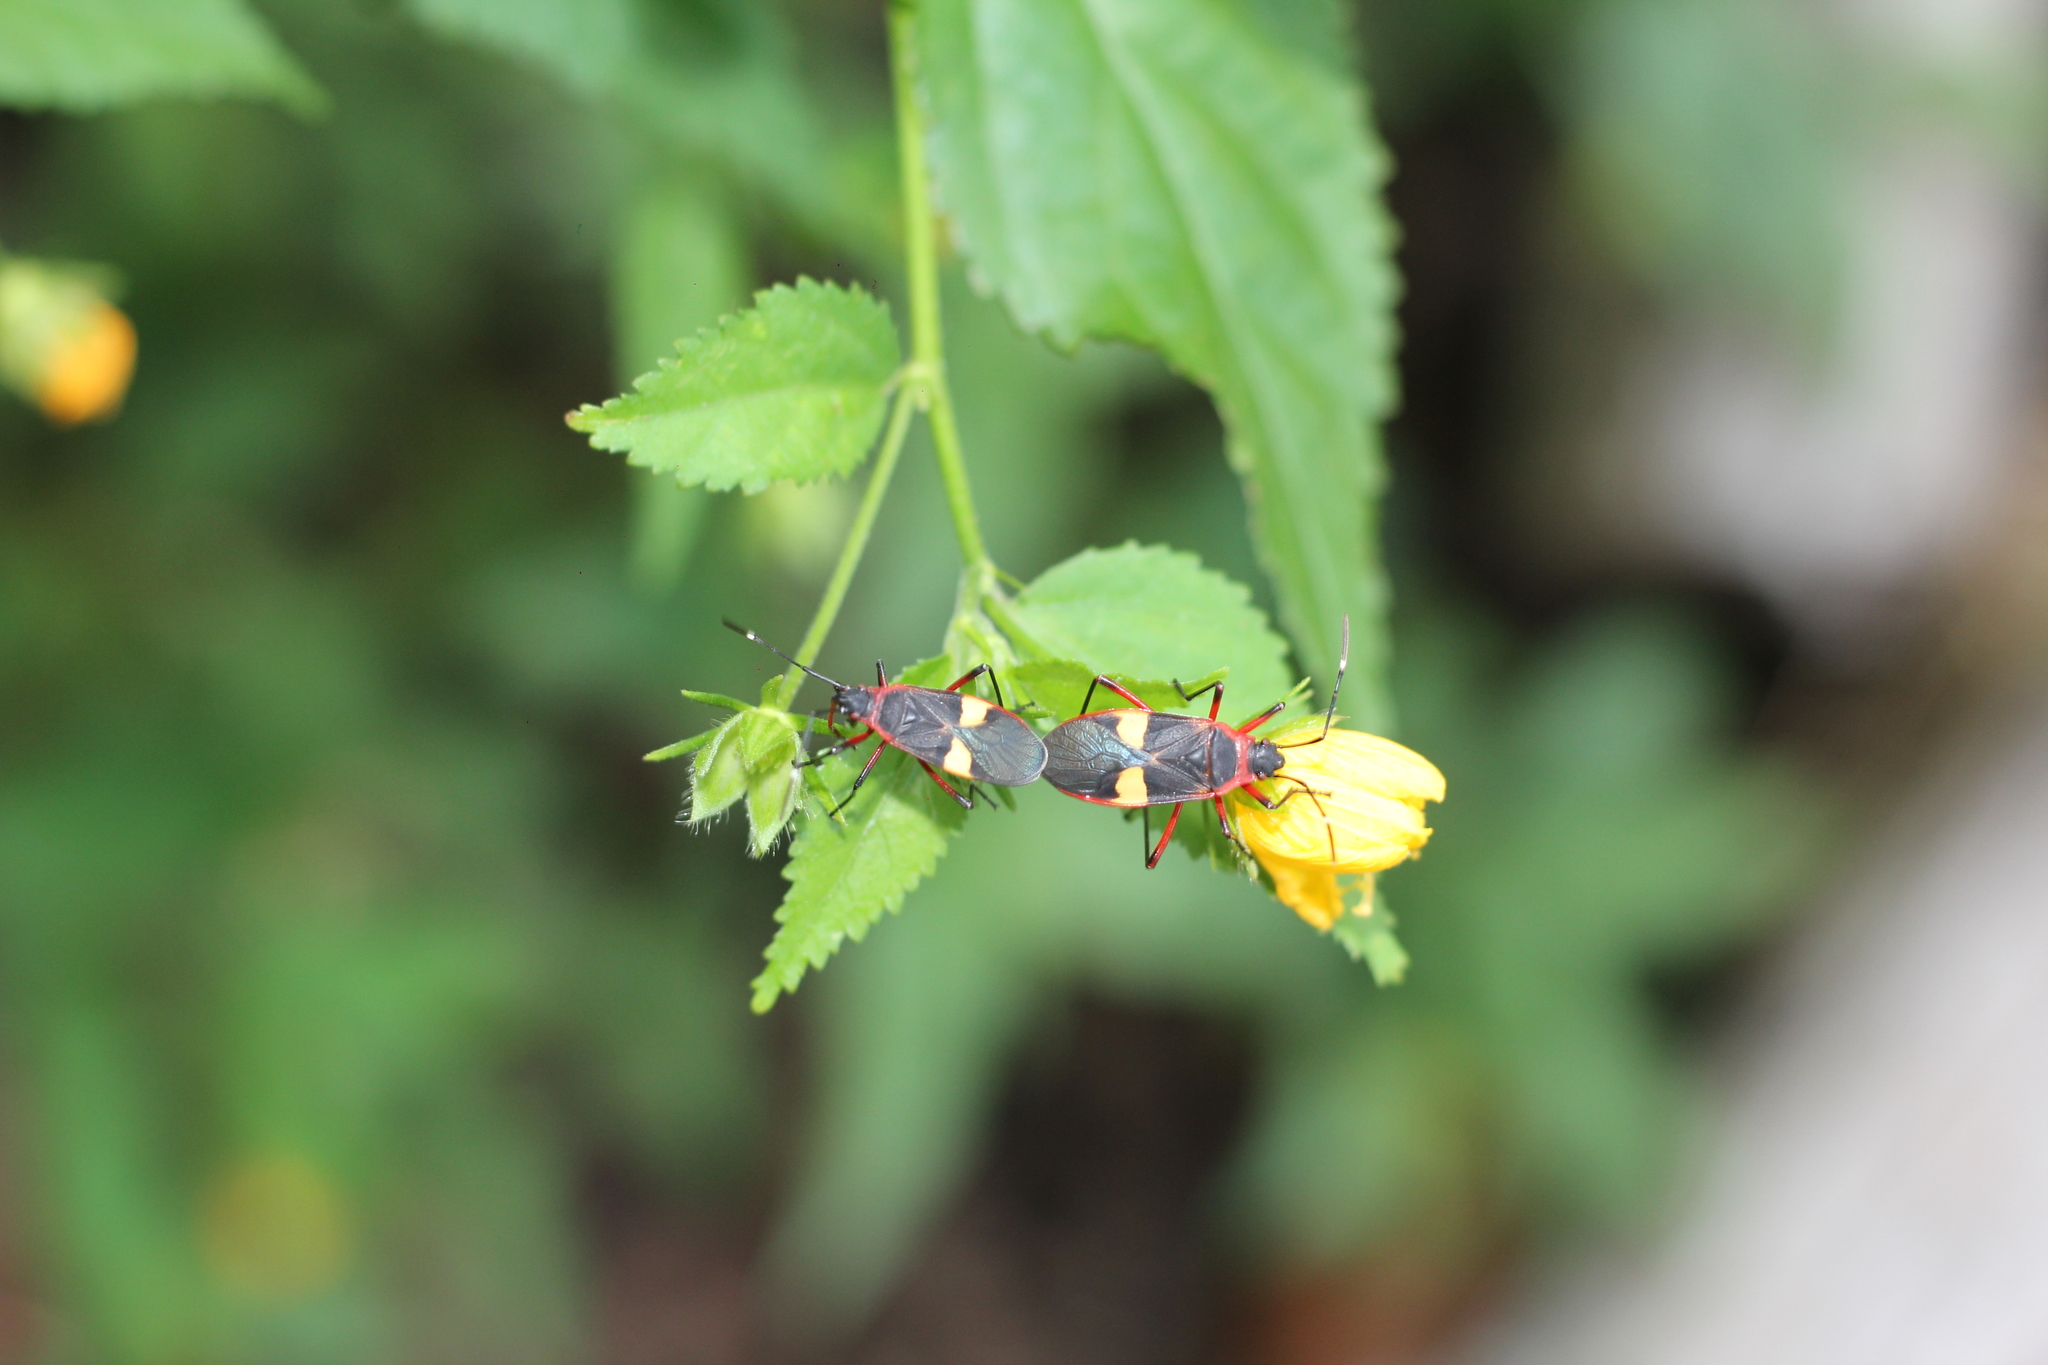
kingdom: Animalia
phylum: Arthropoda
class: Insecta
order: Hemiptera
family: Pyrrhocoridae
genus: Dysdercus
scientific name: Dysdercus albofasciatus
